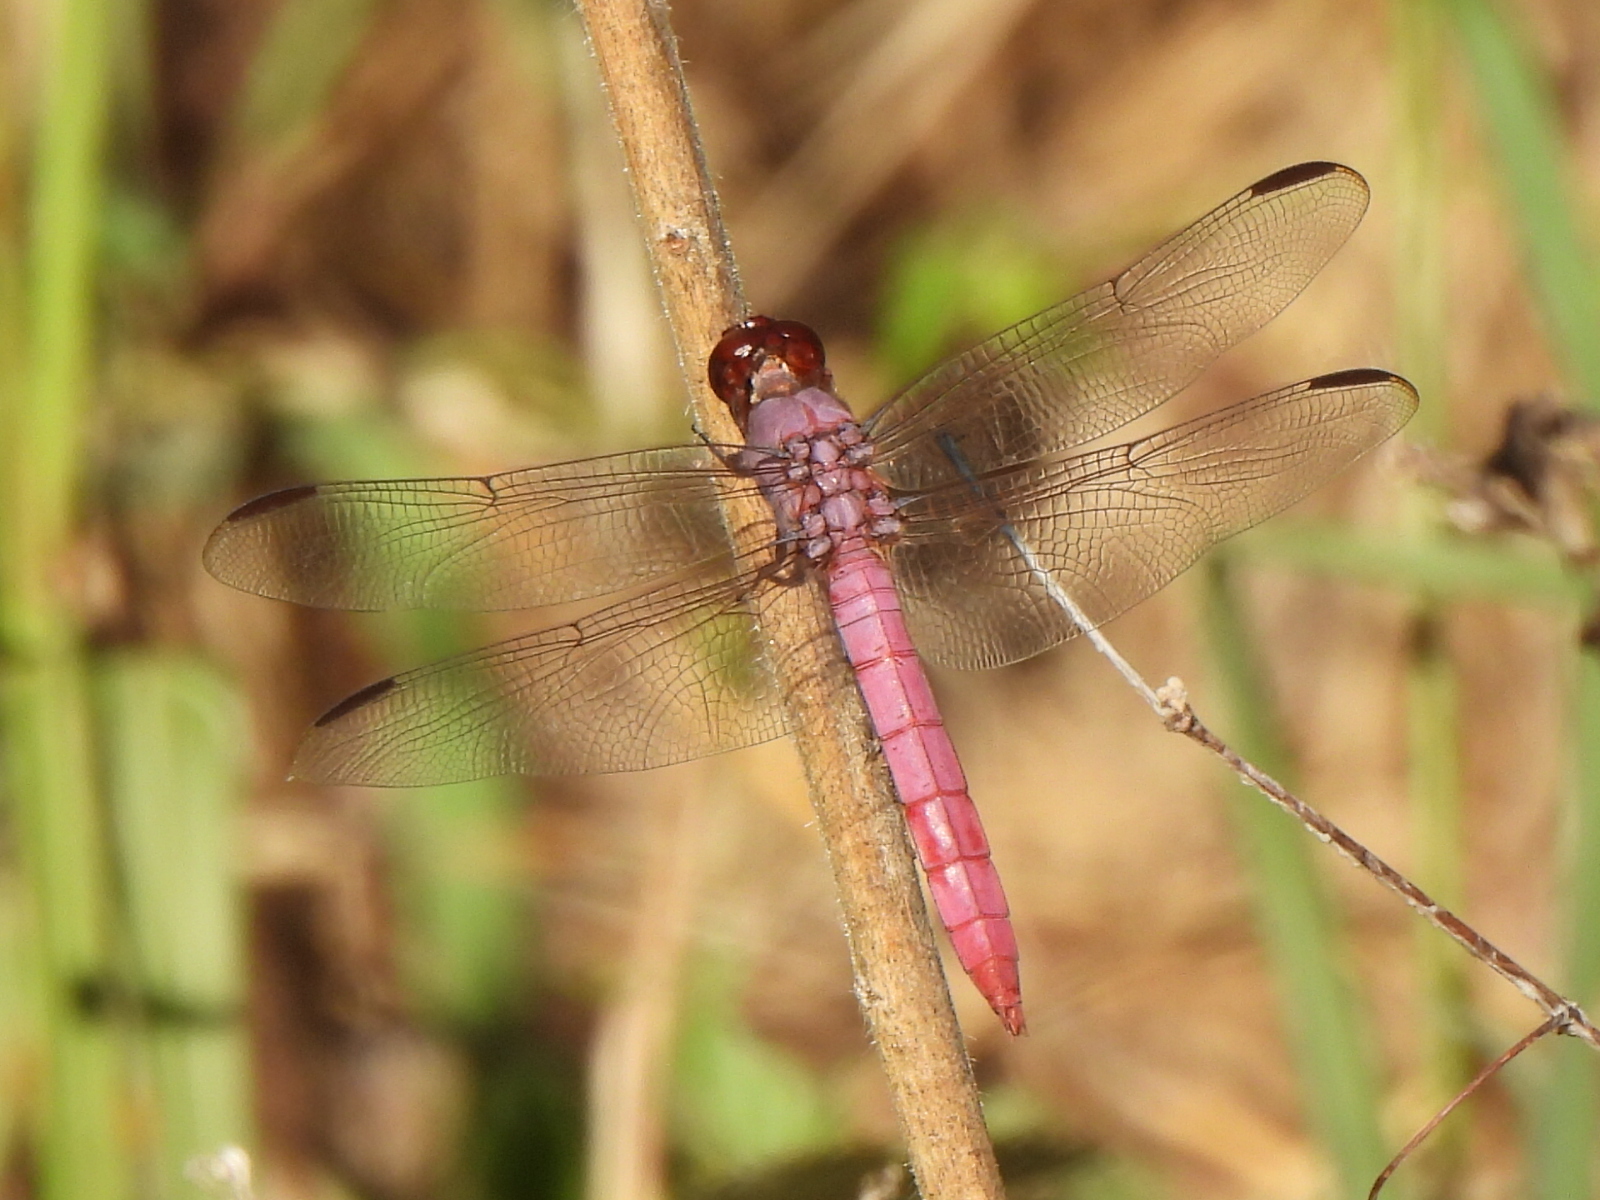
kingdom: Animalia
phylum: Arthropoda
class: Insecta
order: Odonata
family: Libellulidae
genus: Orthemis
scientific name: Orthemis ferruginea
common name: Roseate skimmer
